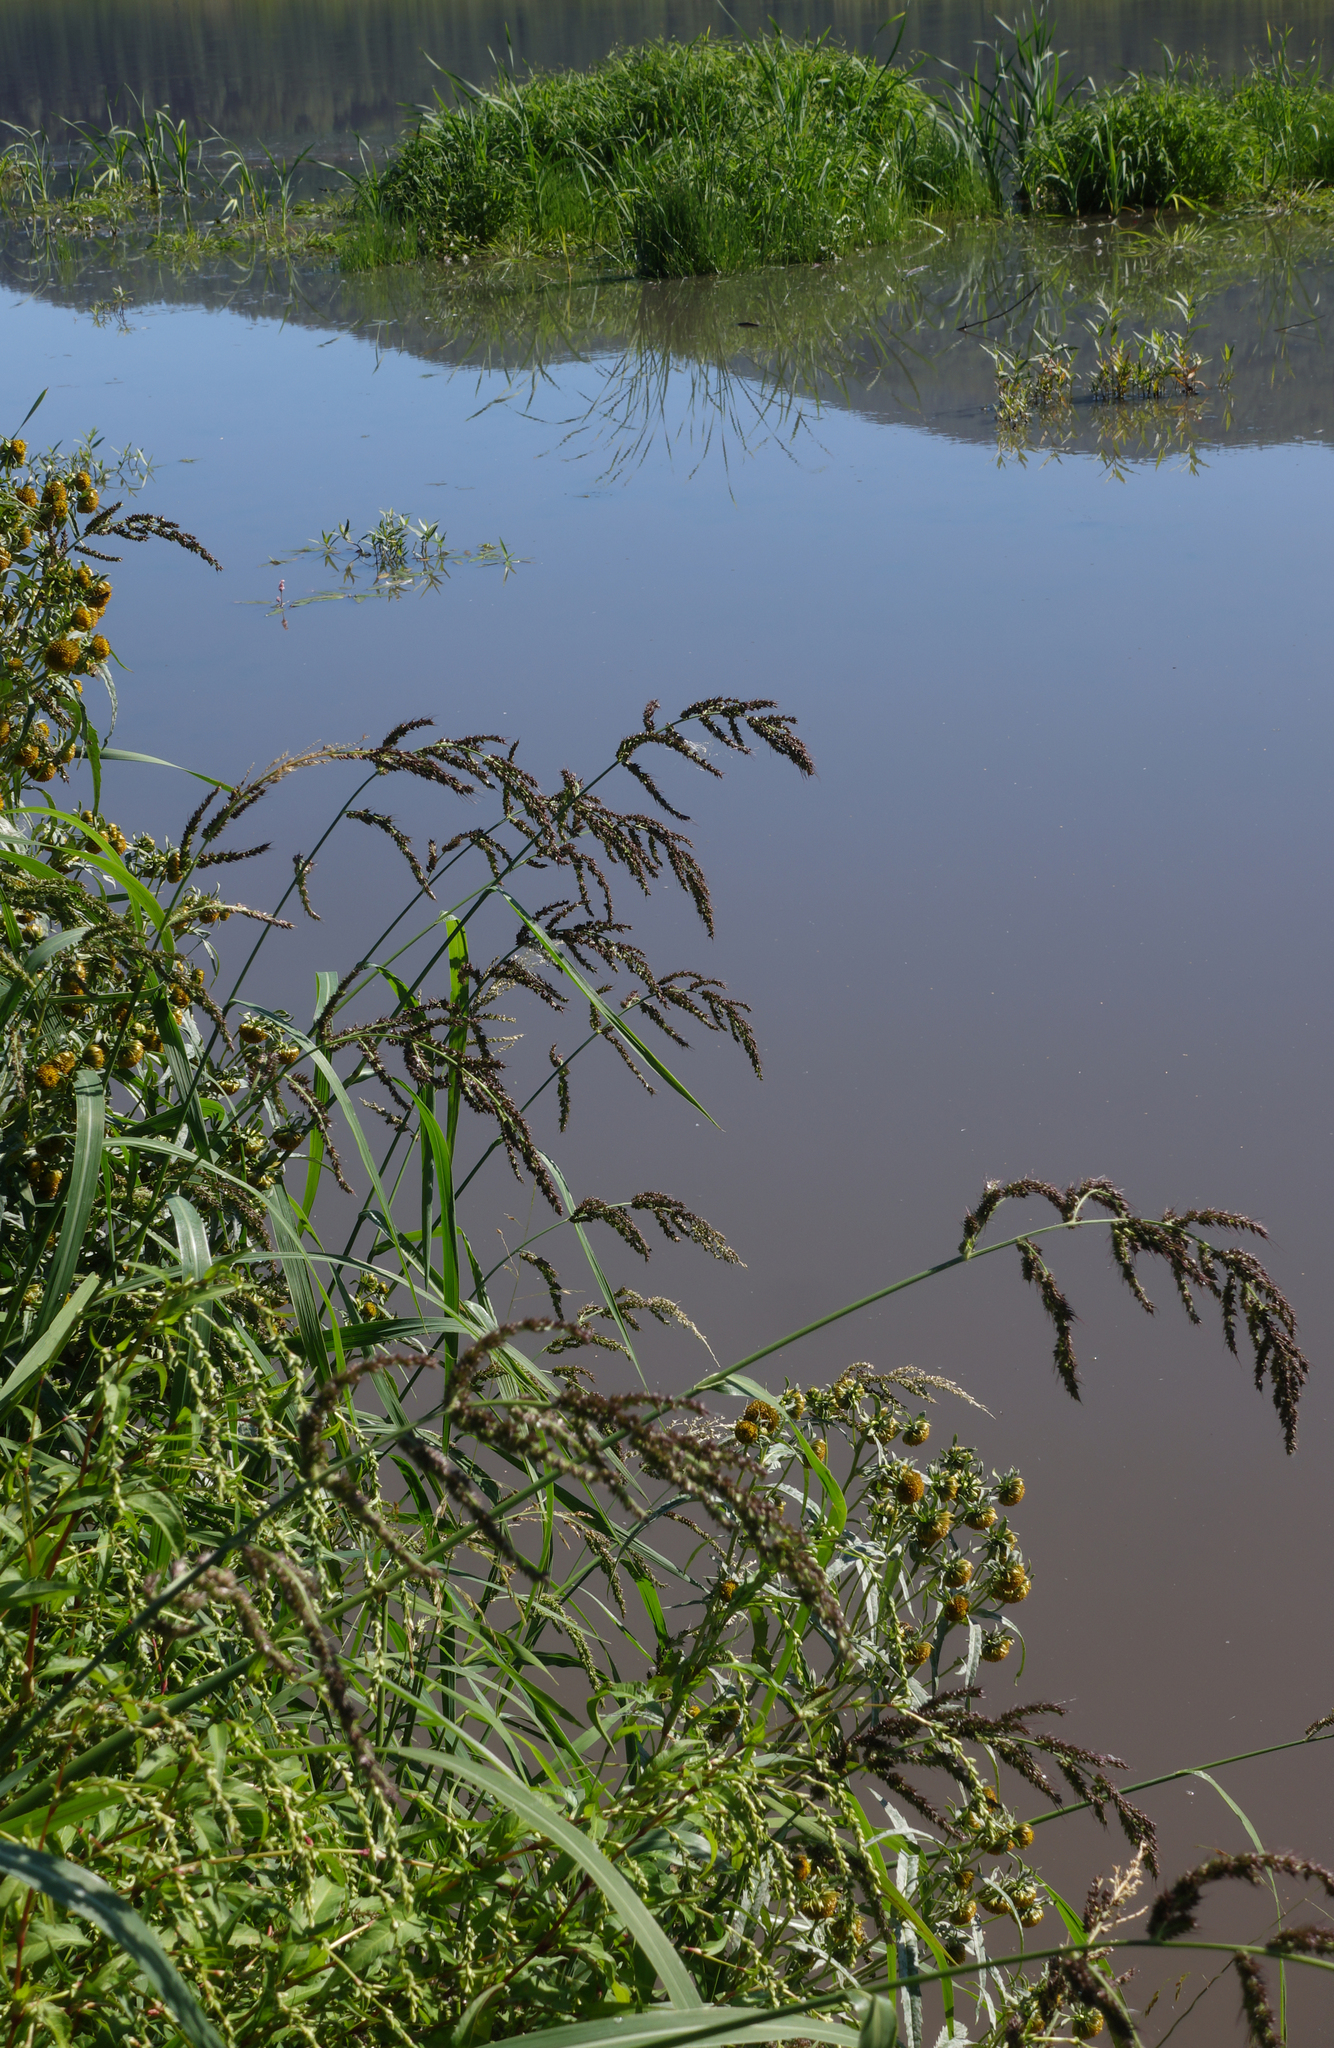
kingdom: Plantae
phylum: Tracheophyta
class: Liliopsida
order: Poales
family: Poaceae
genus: Echinochloa
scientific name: Echinochloa crus-galli
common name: Cockspur
